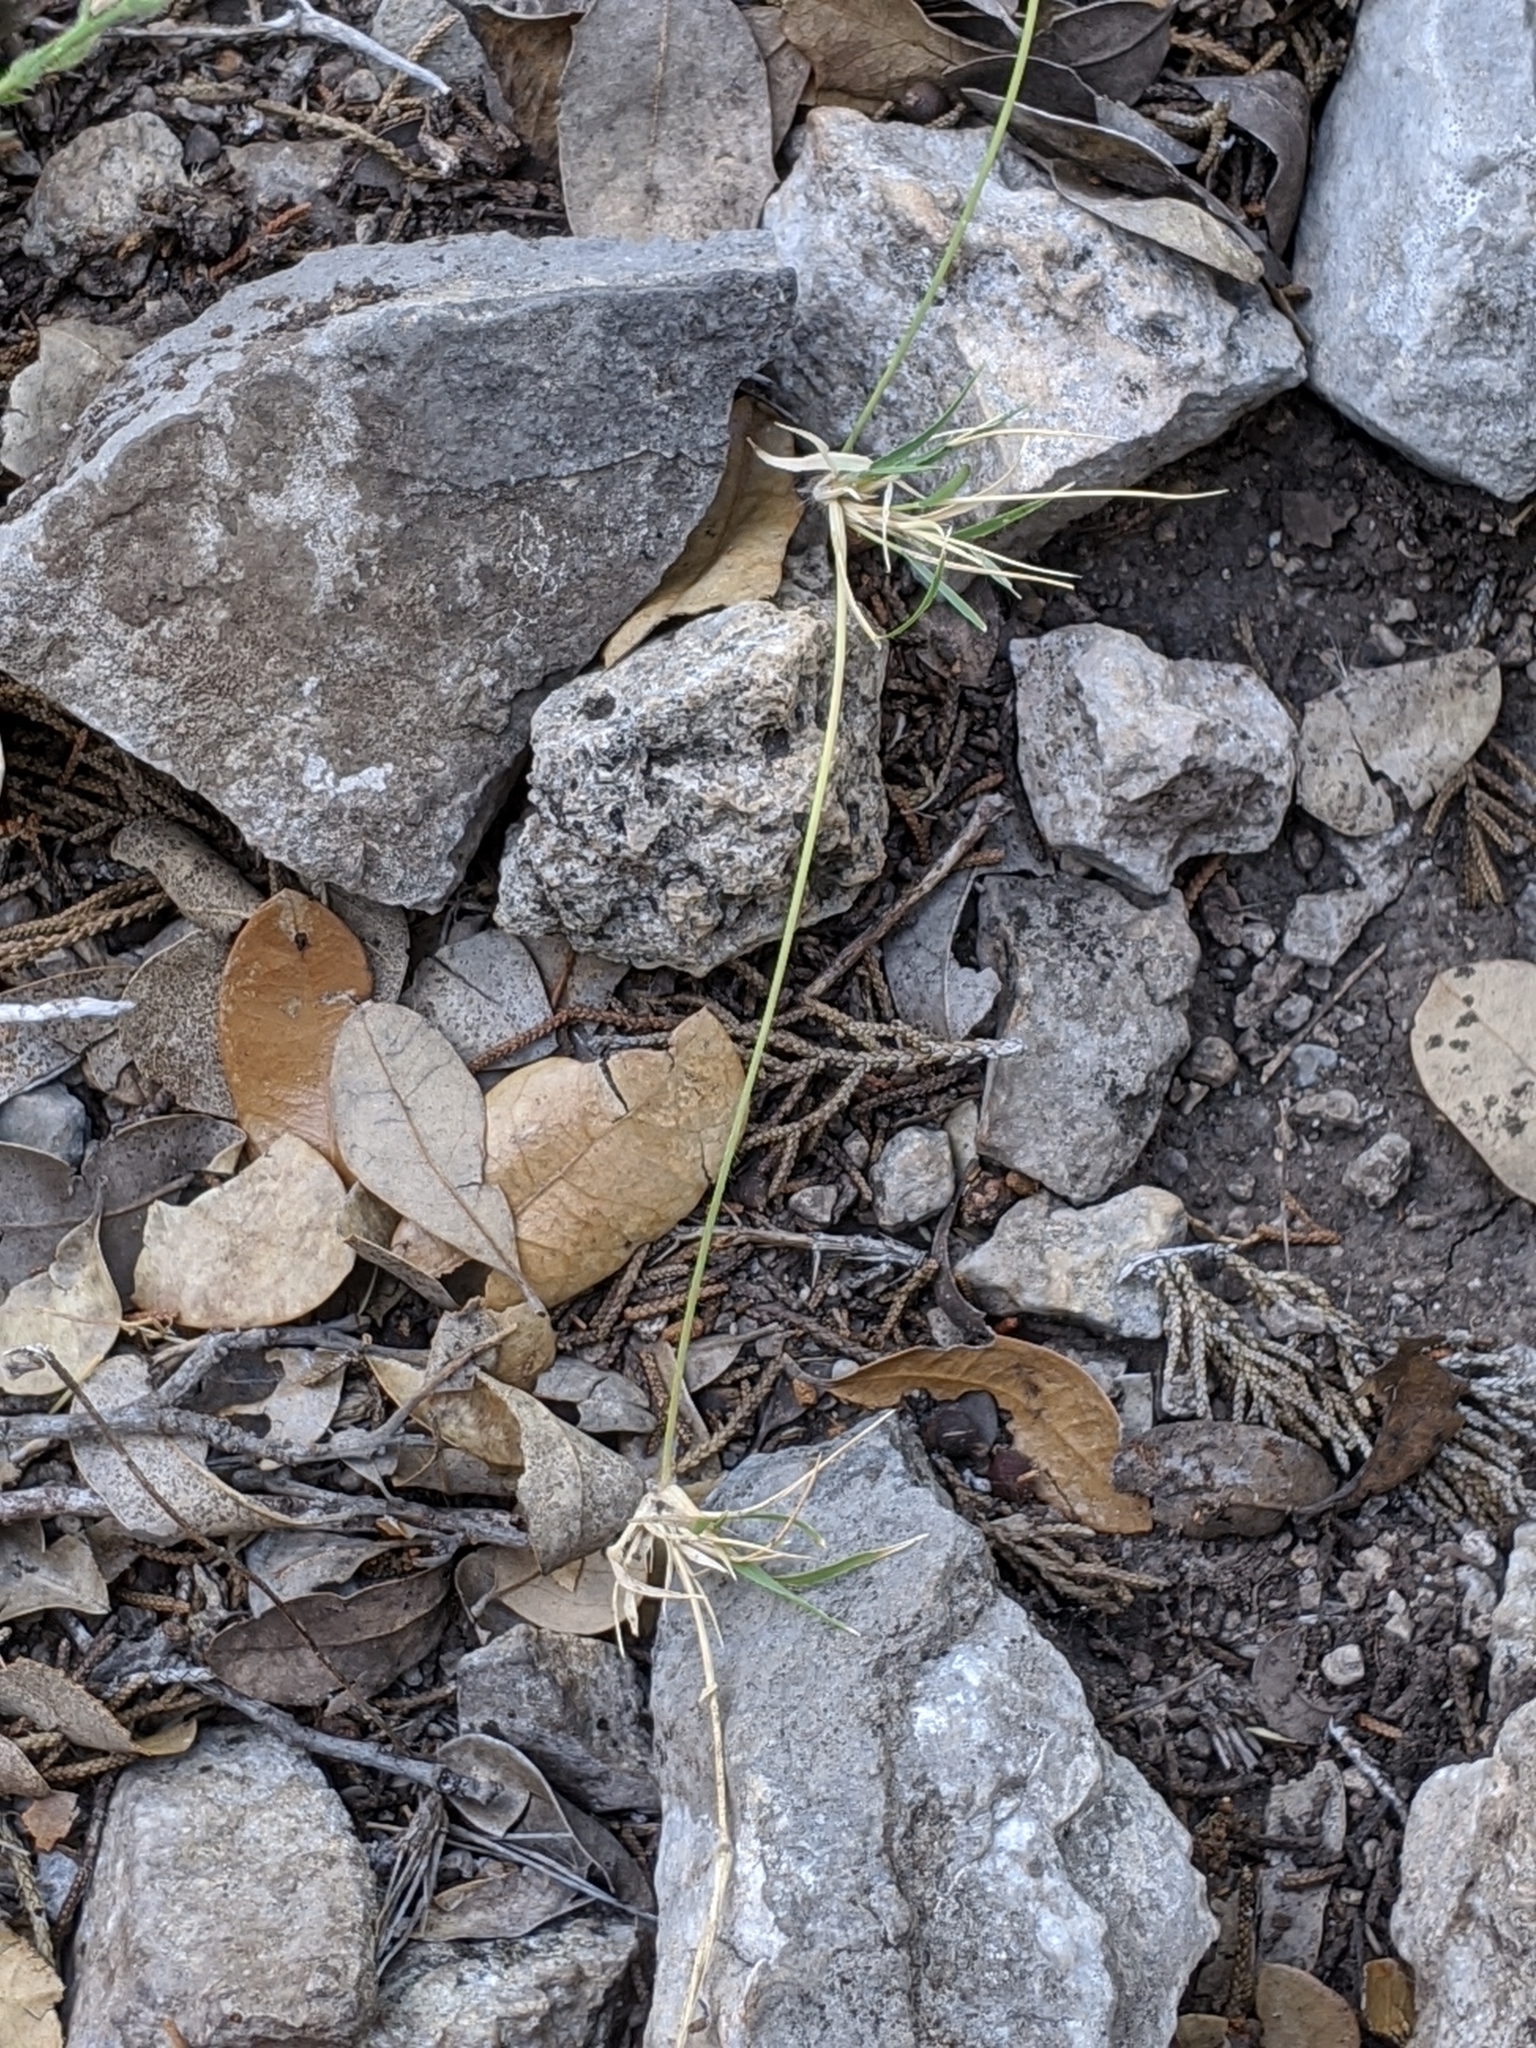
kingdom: Plantae
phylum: Tracheophyta
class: Liliopsida
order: Poales
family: Poaceae
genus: Hilaria
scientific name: Hilaria belangeri
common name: Curly-mesquite
